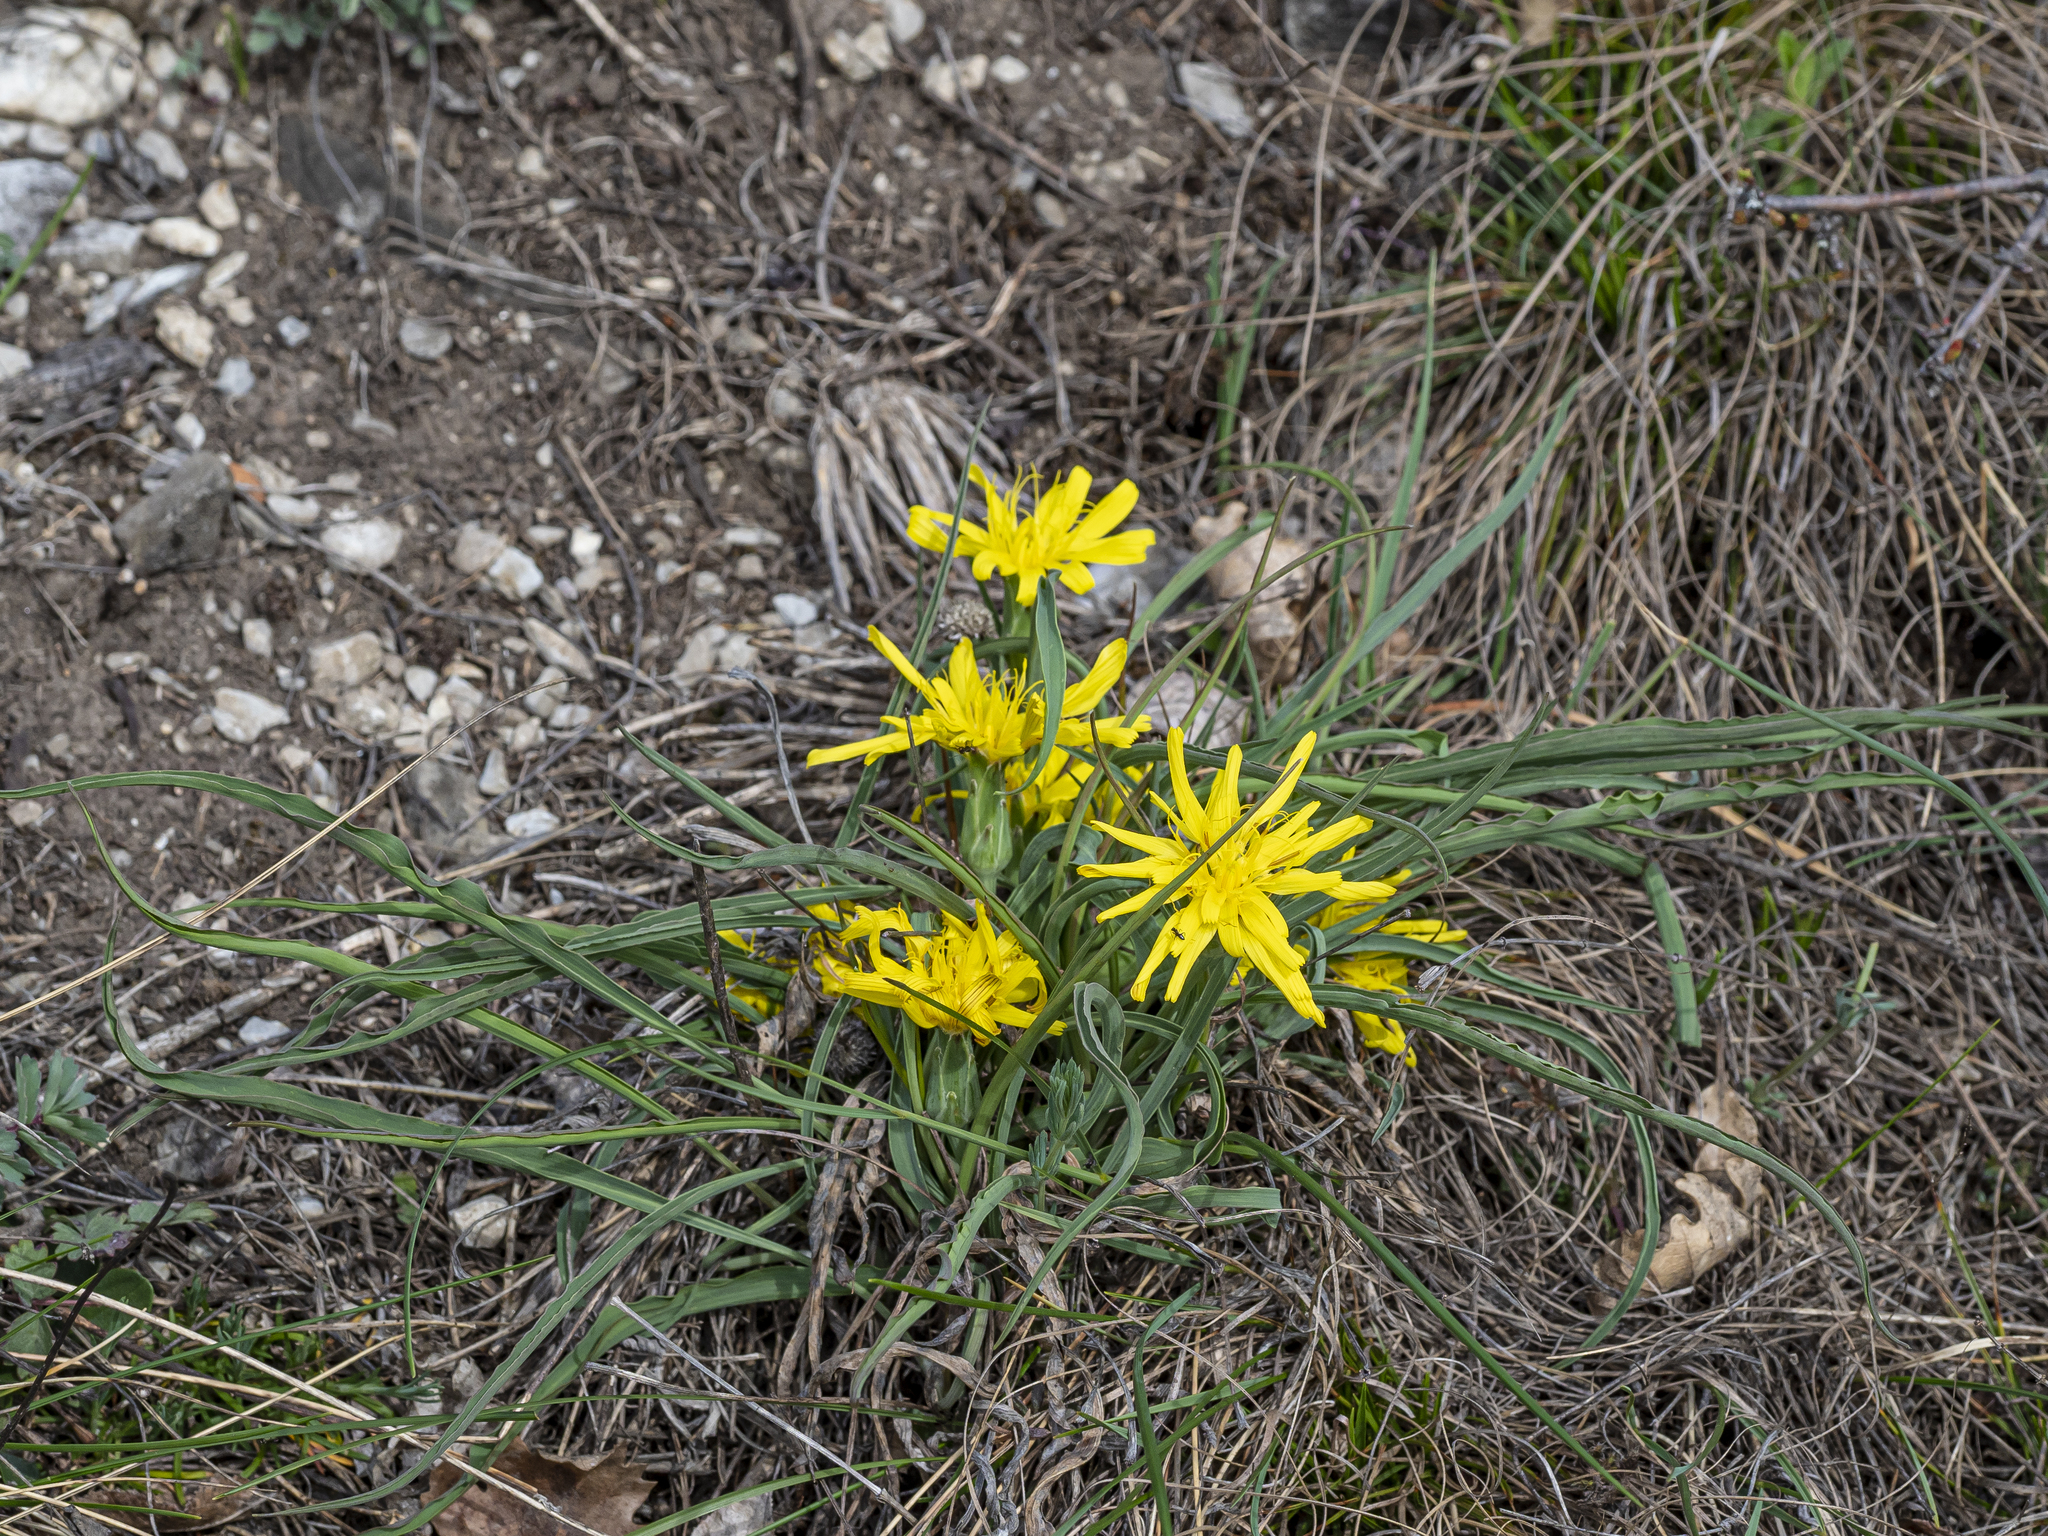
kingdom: Plantae
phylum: Tracheophyta
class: Magnoliopsida
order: Asterales
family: Asteraceae
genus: Takhtajaniantha
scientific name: Takhtajaniantha austriaca
